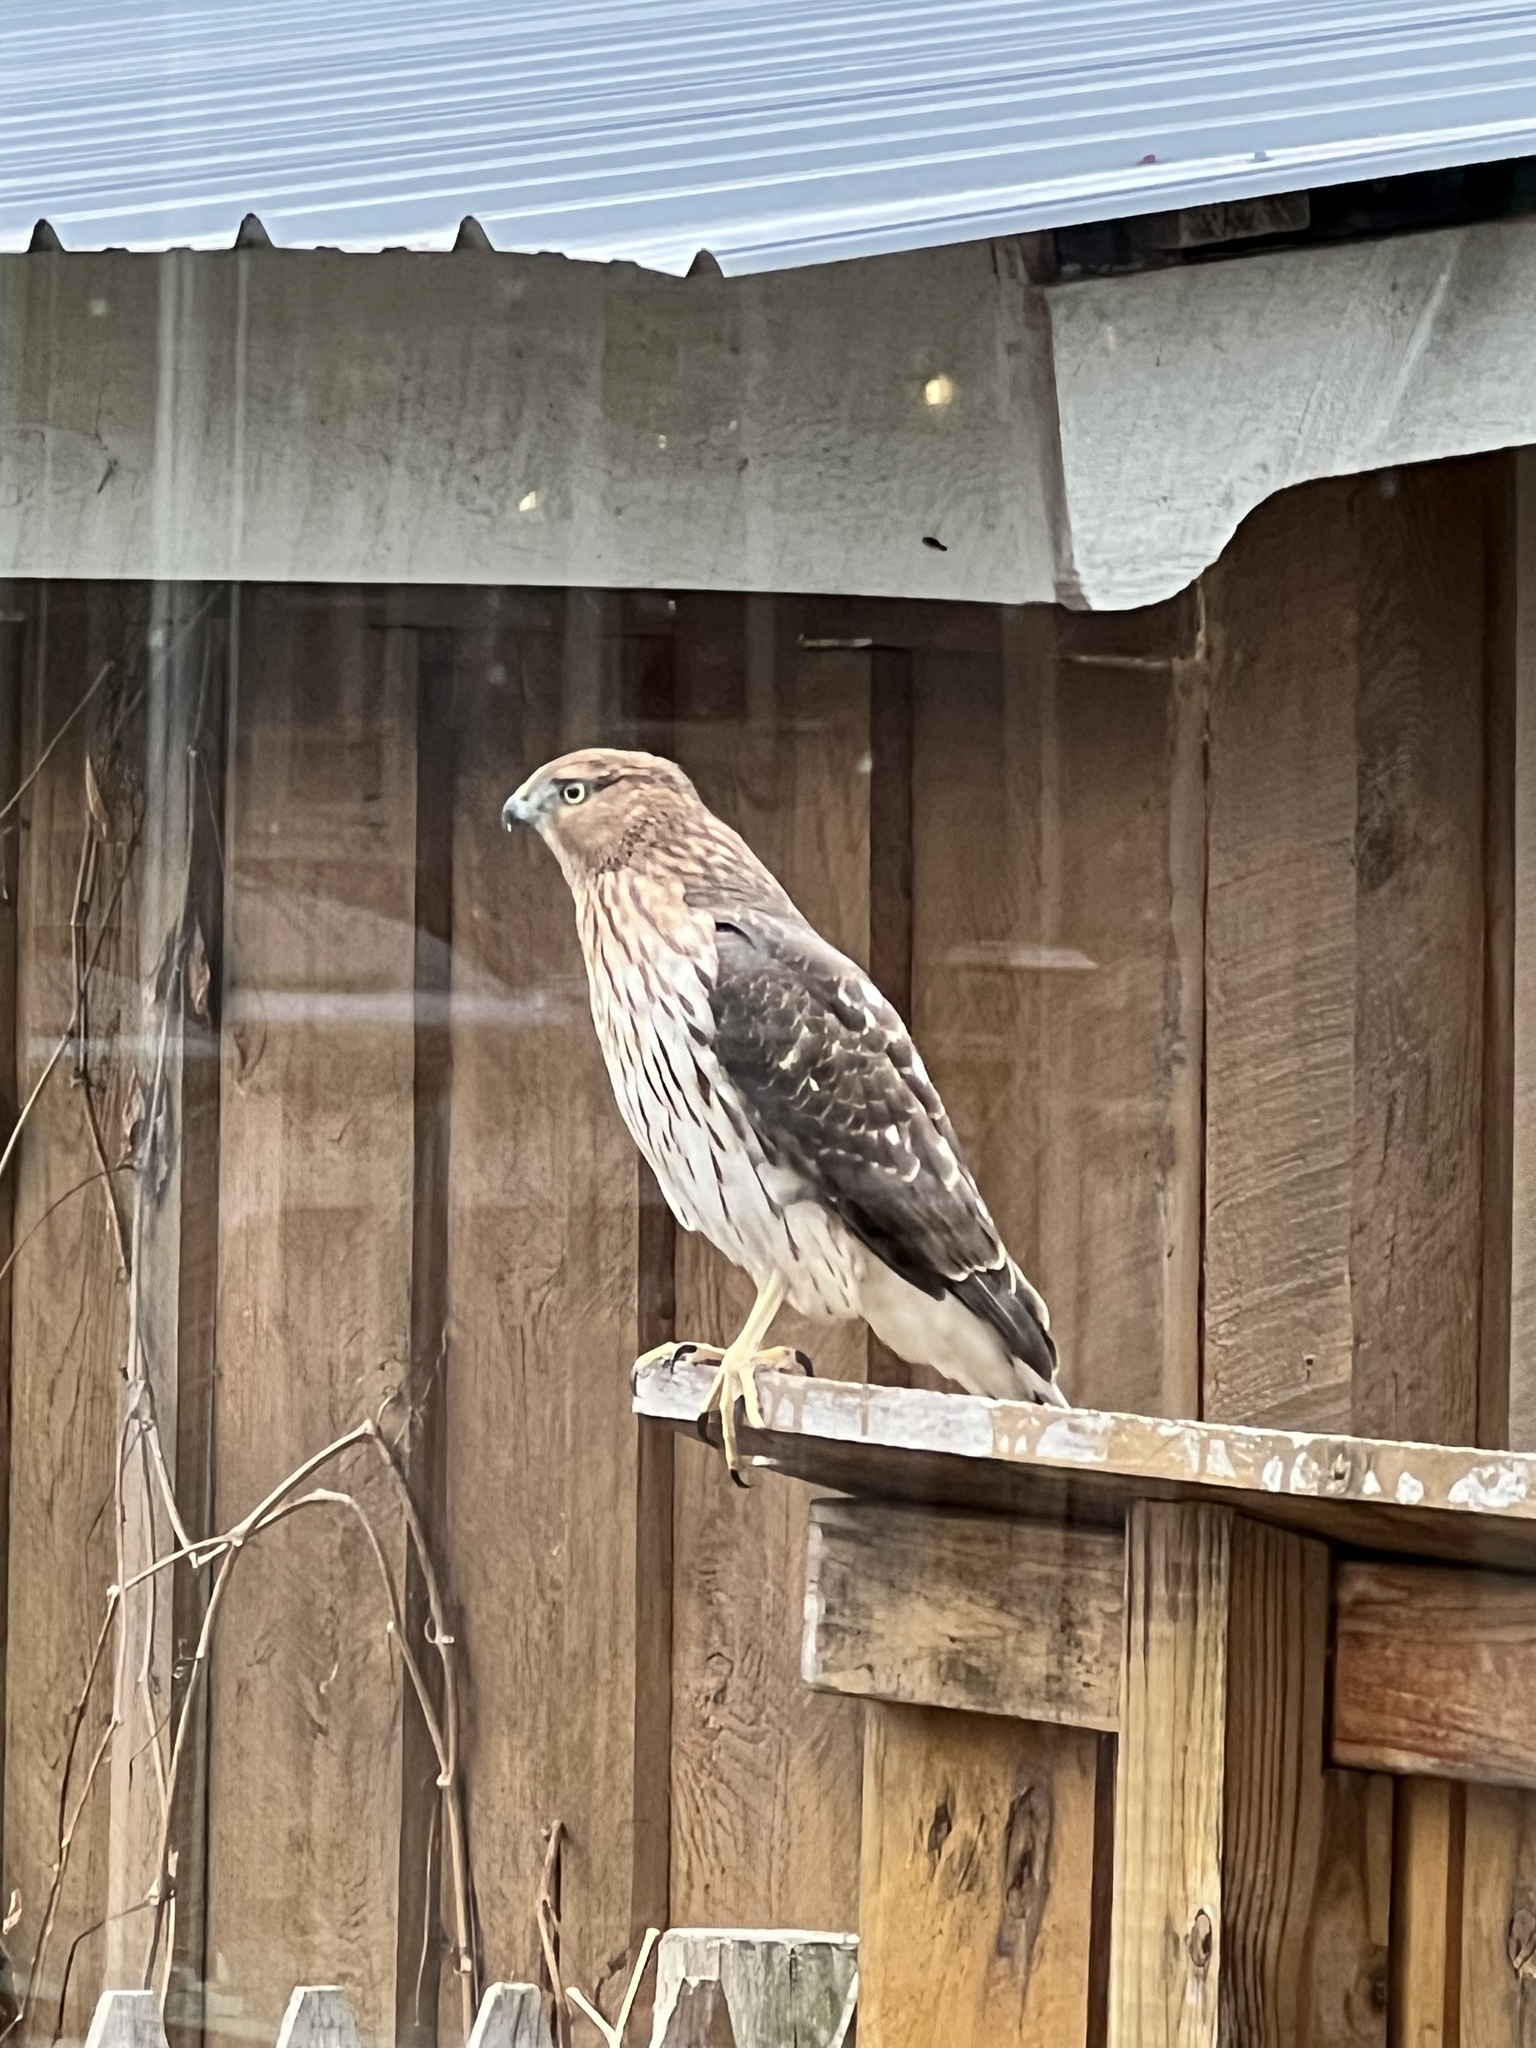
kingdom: Animalia
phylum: Chordata
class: Aves
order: Accipitriformes
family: Accipitridae
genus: Accipiter
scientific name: Accipiter cooperii
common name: Cooper's hawk
